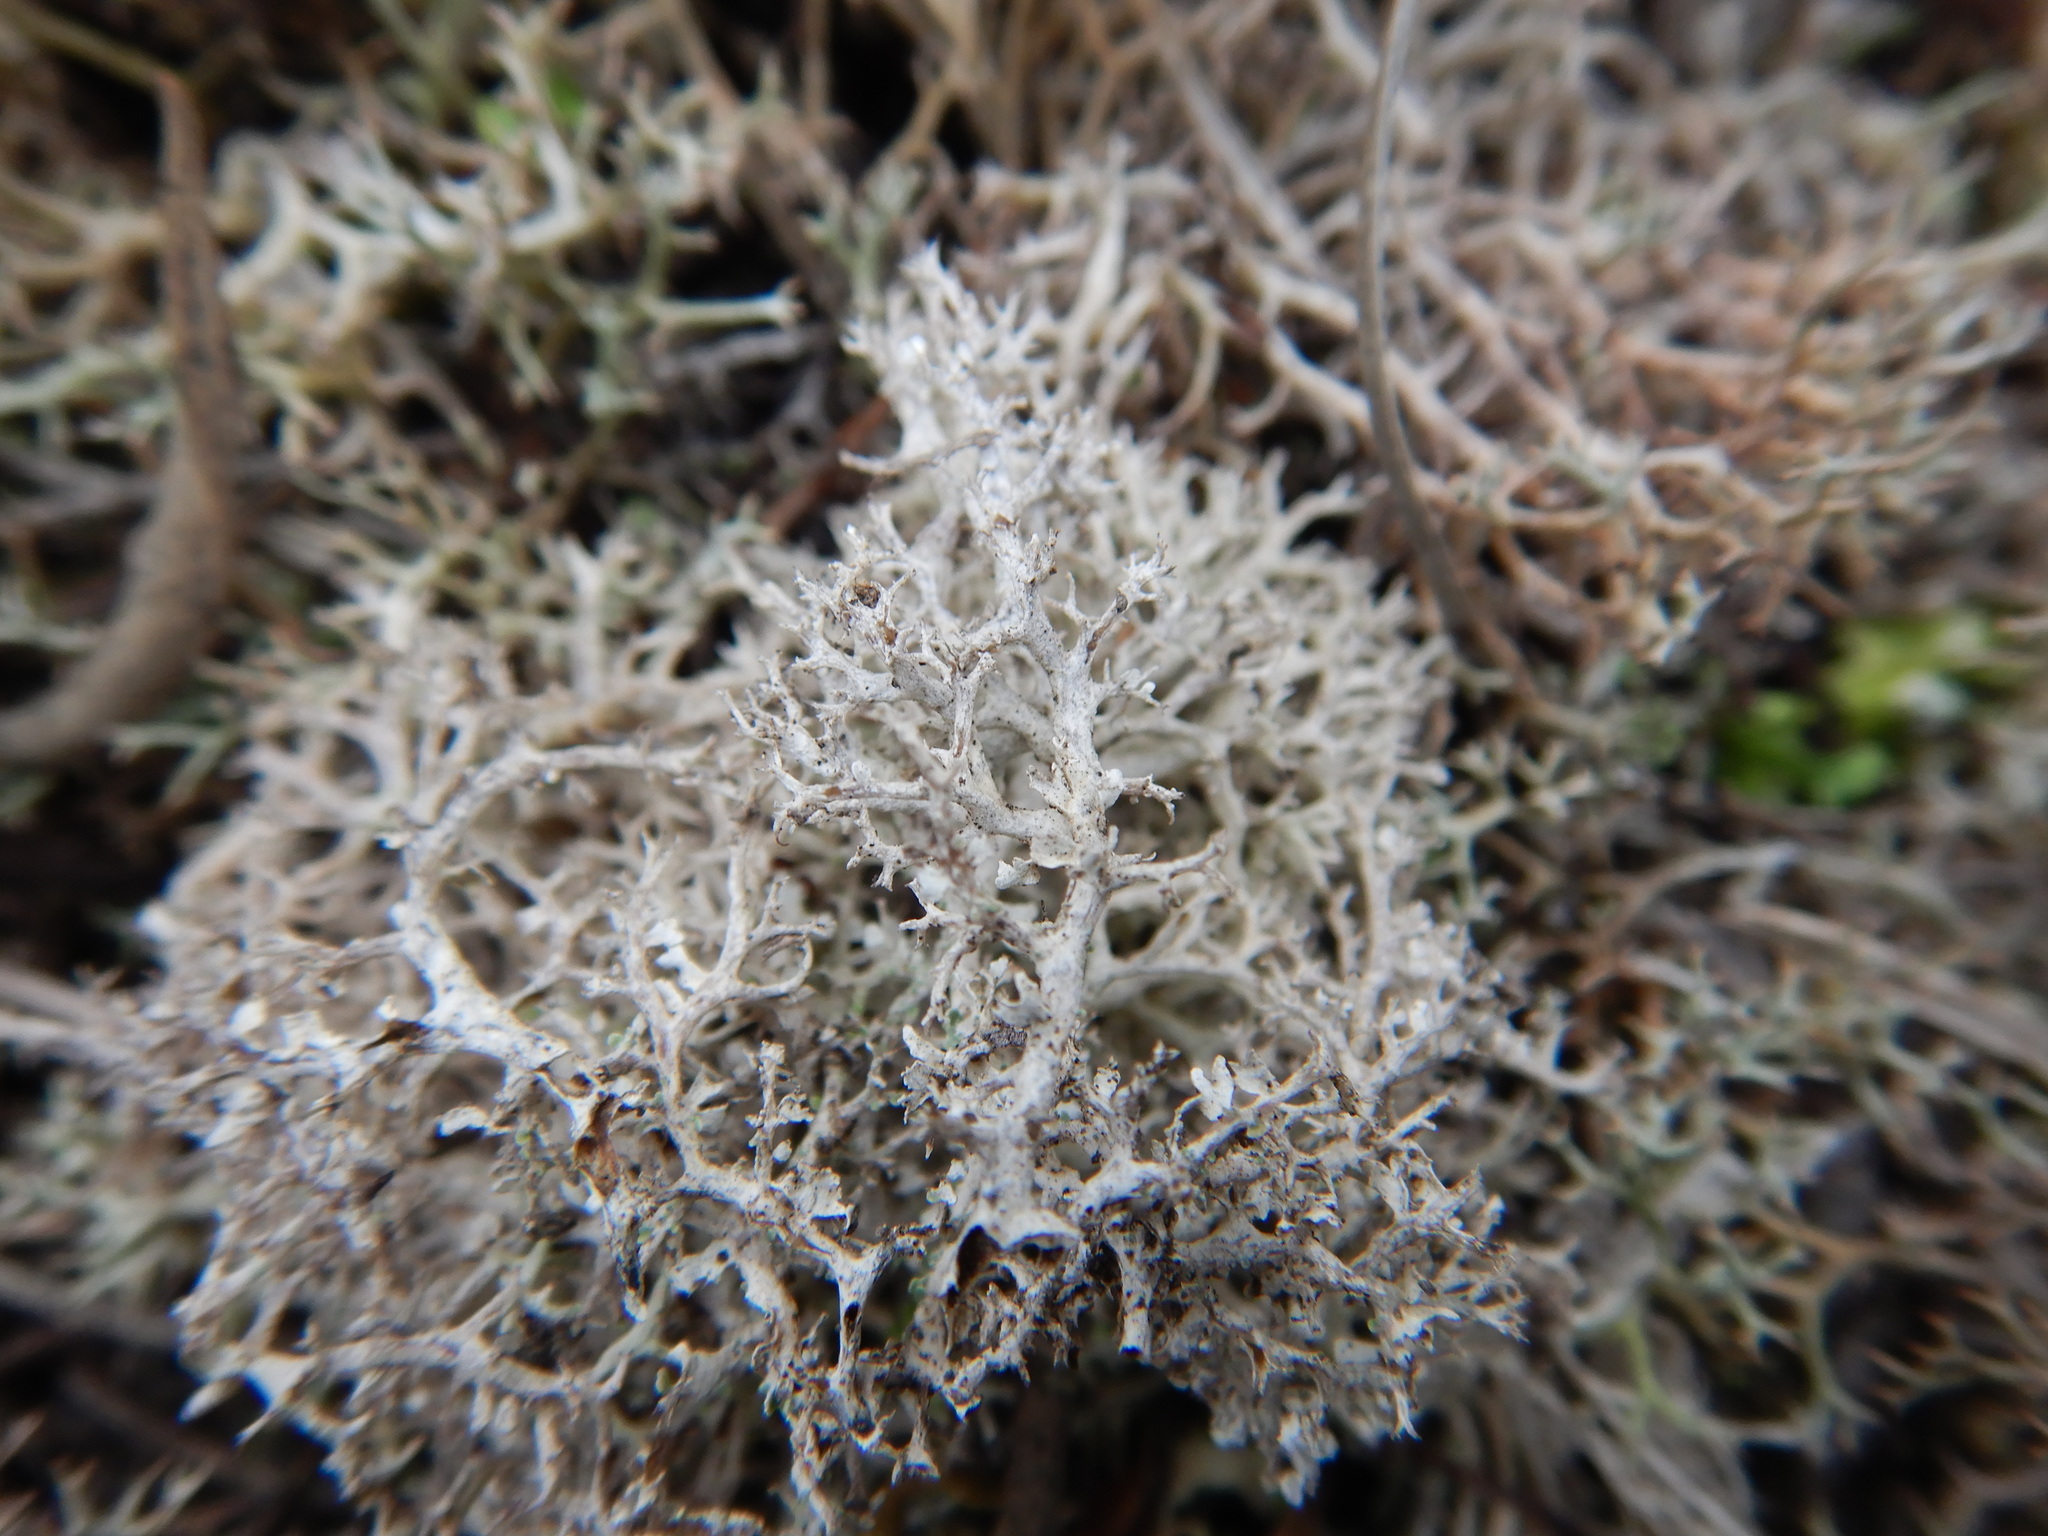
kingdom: Fungi
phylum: Ascomycota
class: Lecanoromycetes
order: Lecanorales
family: Cladoniaceae
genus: Cladonia
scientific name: Cladonia furcata
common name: Many-forked cladonia
